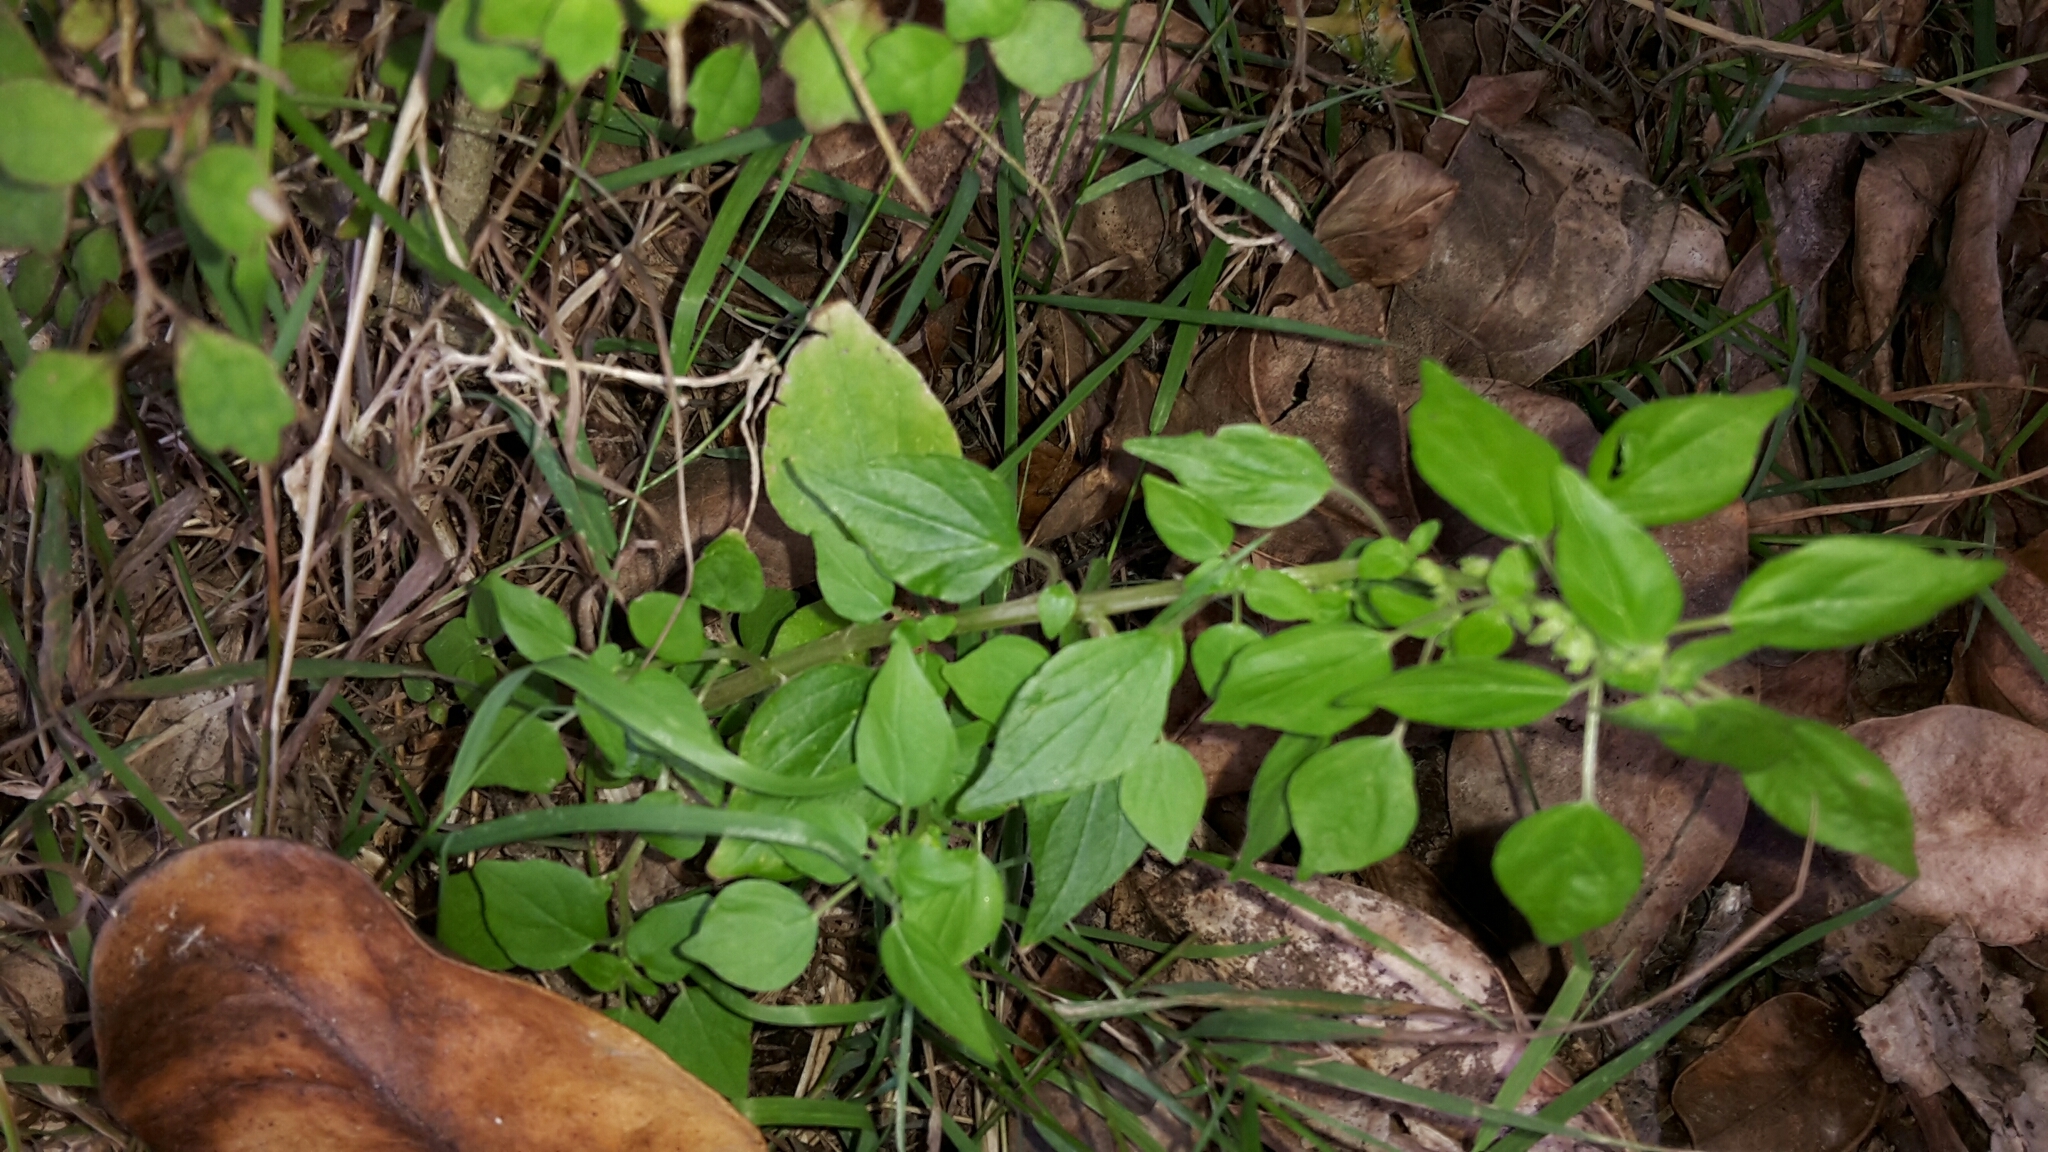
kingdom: Plantae
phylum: Tracheophyta
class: Magnoliopsida
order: Rosales
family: Urticaceae
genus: Parietaria
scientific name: Parietaria debilis
